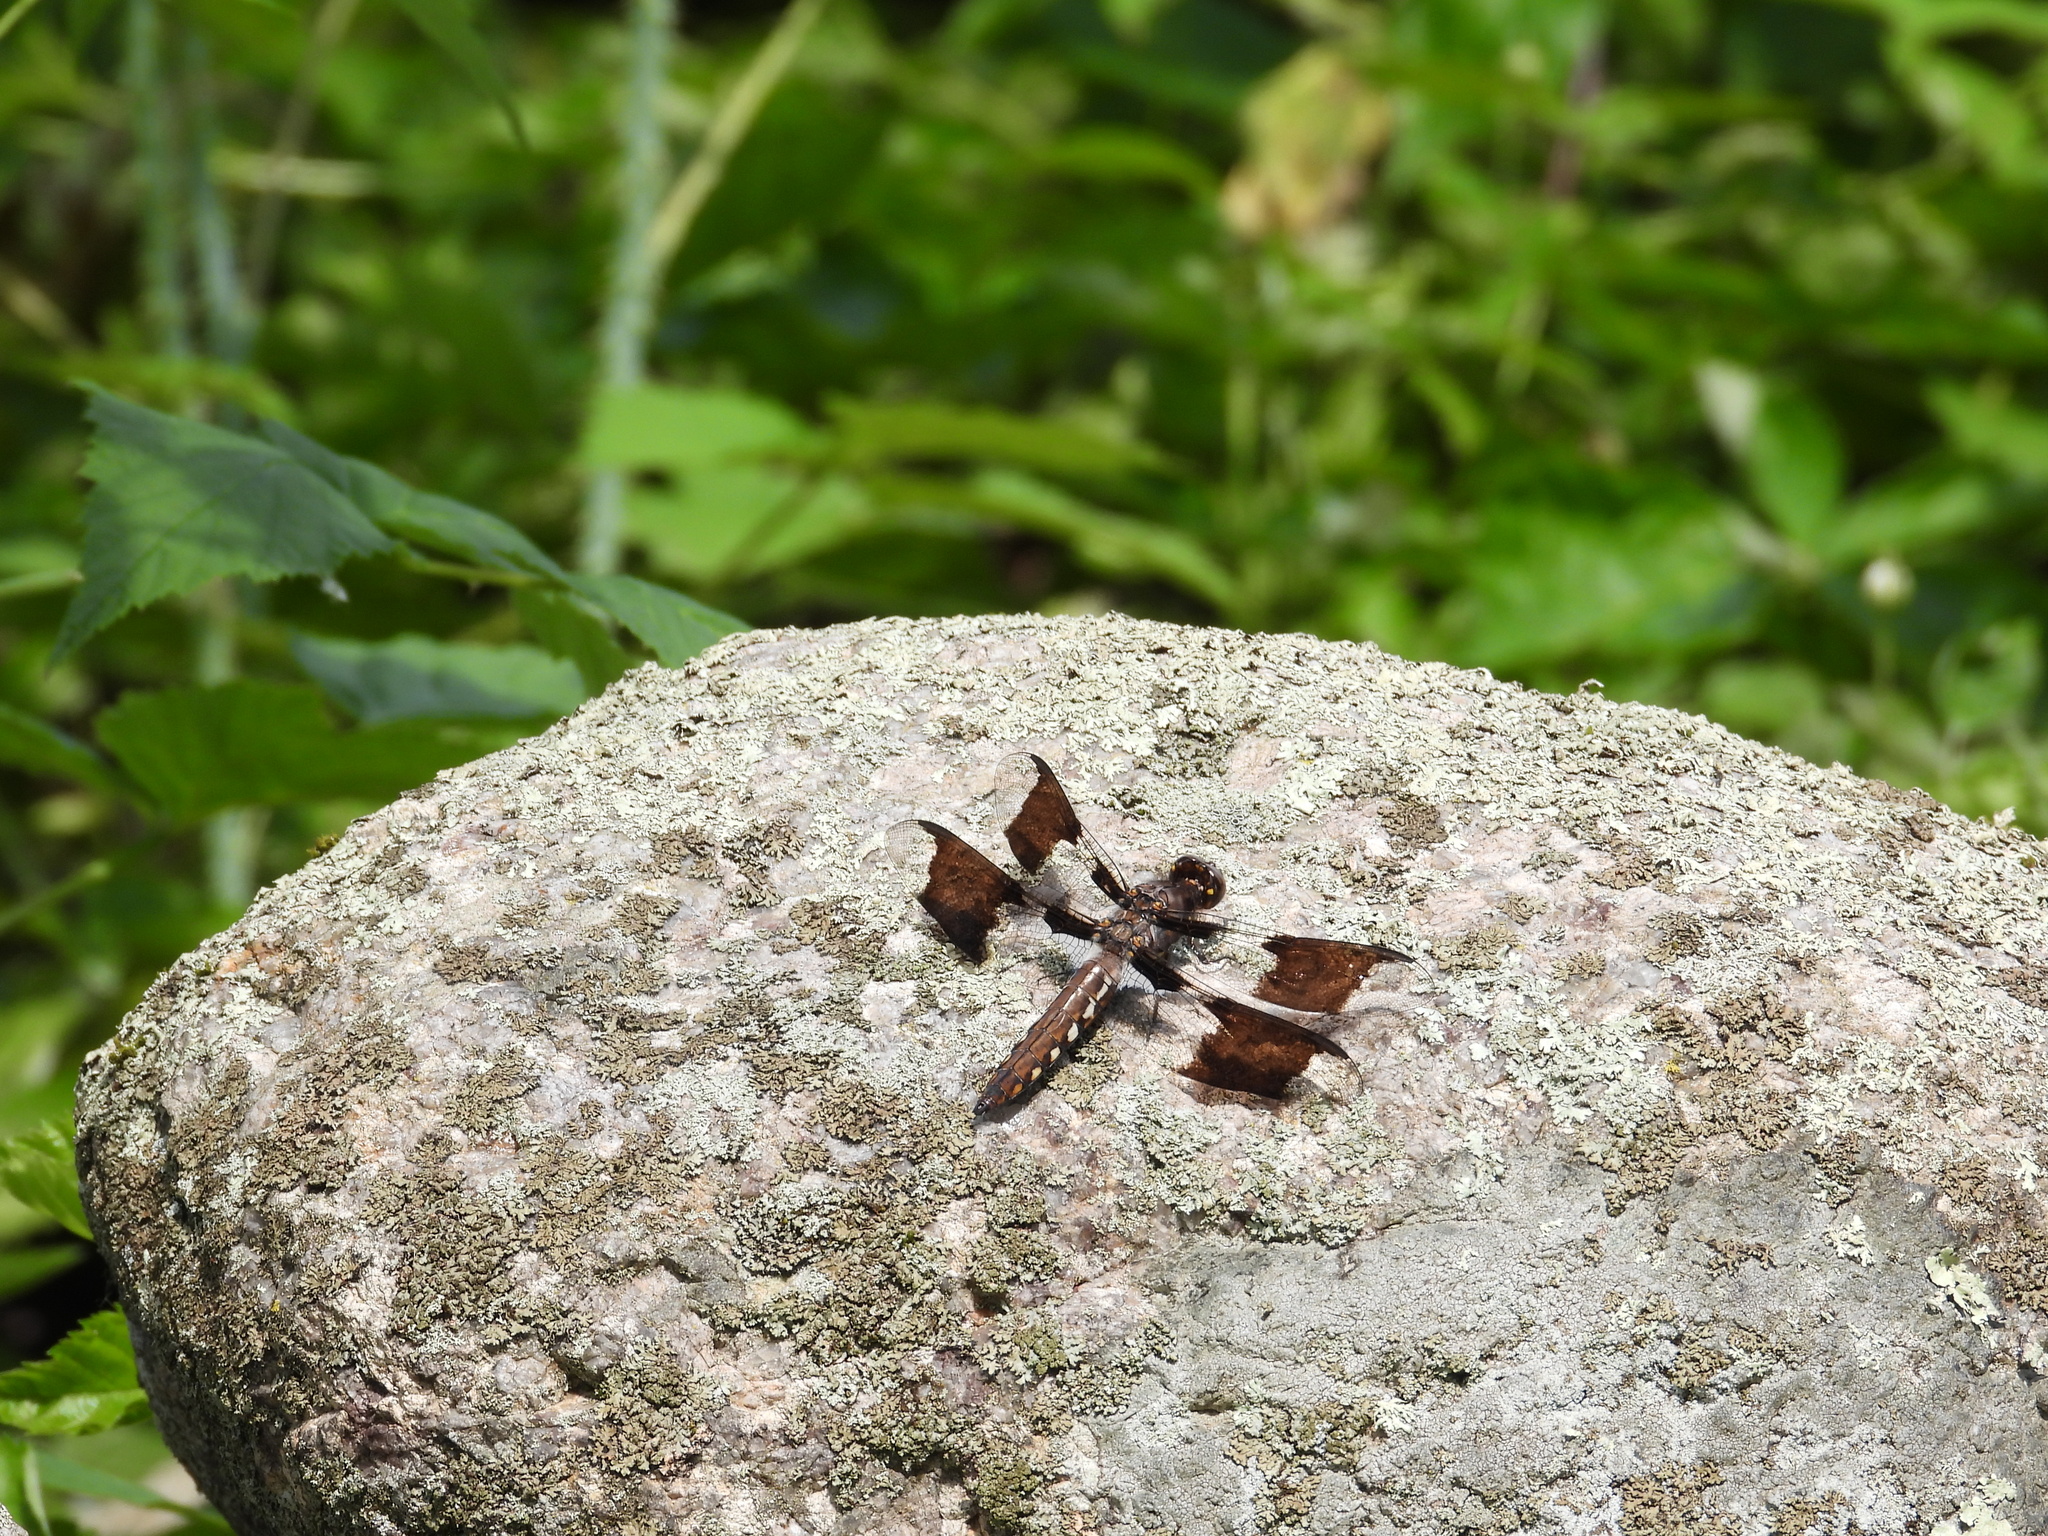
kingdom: Animalia
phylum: Arthropoda
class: Insecta
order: Odonata
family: Libellulidae
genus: Plathemis
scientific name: Plathemis lydia
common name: Common whitetail
